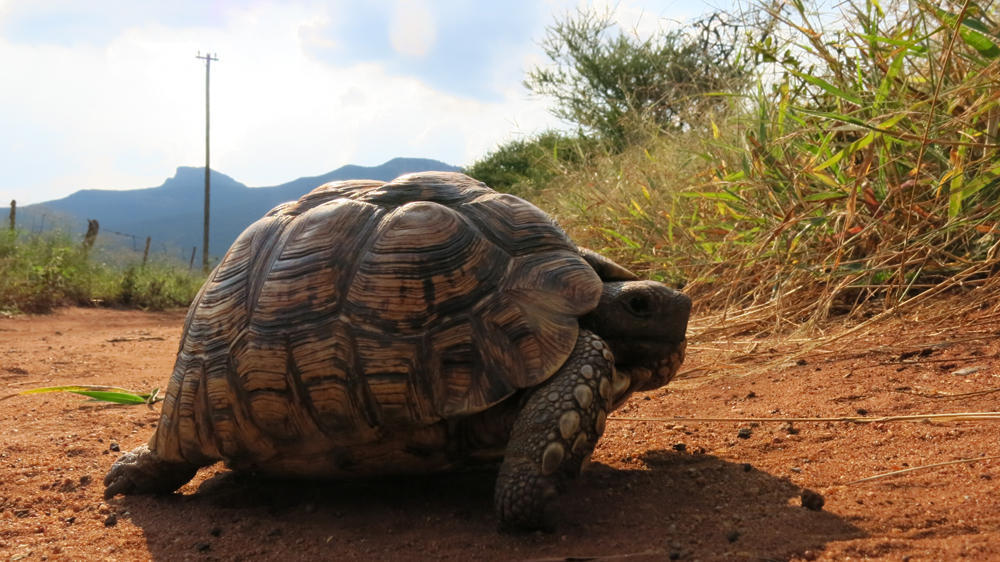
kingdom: Animalia
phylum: Chordata
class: Testudines
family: Testudinidae
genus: Stigmochelys
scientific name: Stigmochelys pardalis
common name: Leopard tortoise
